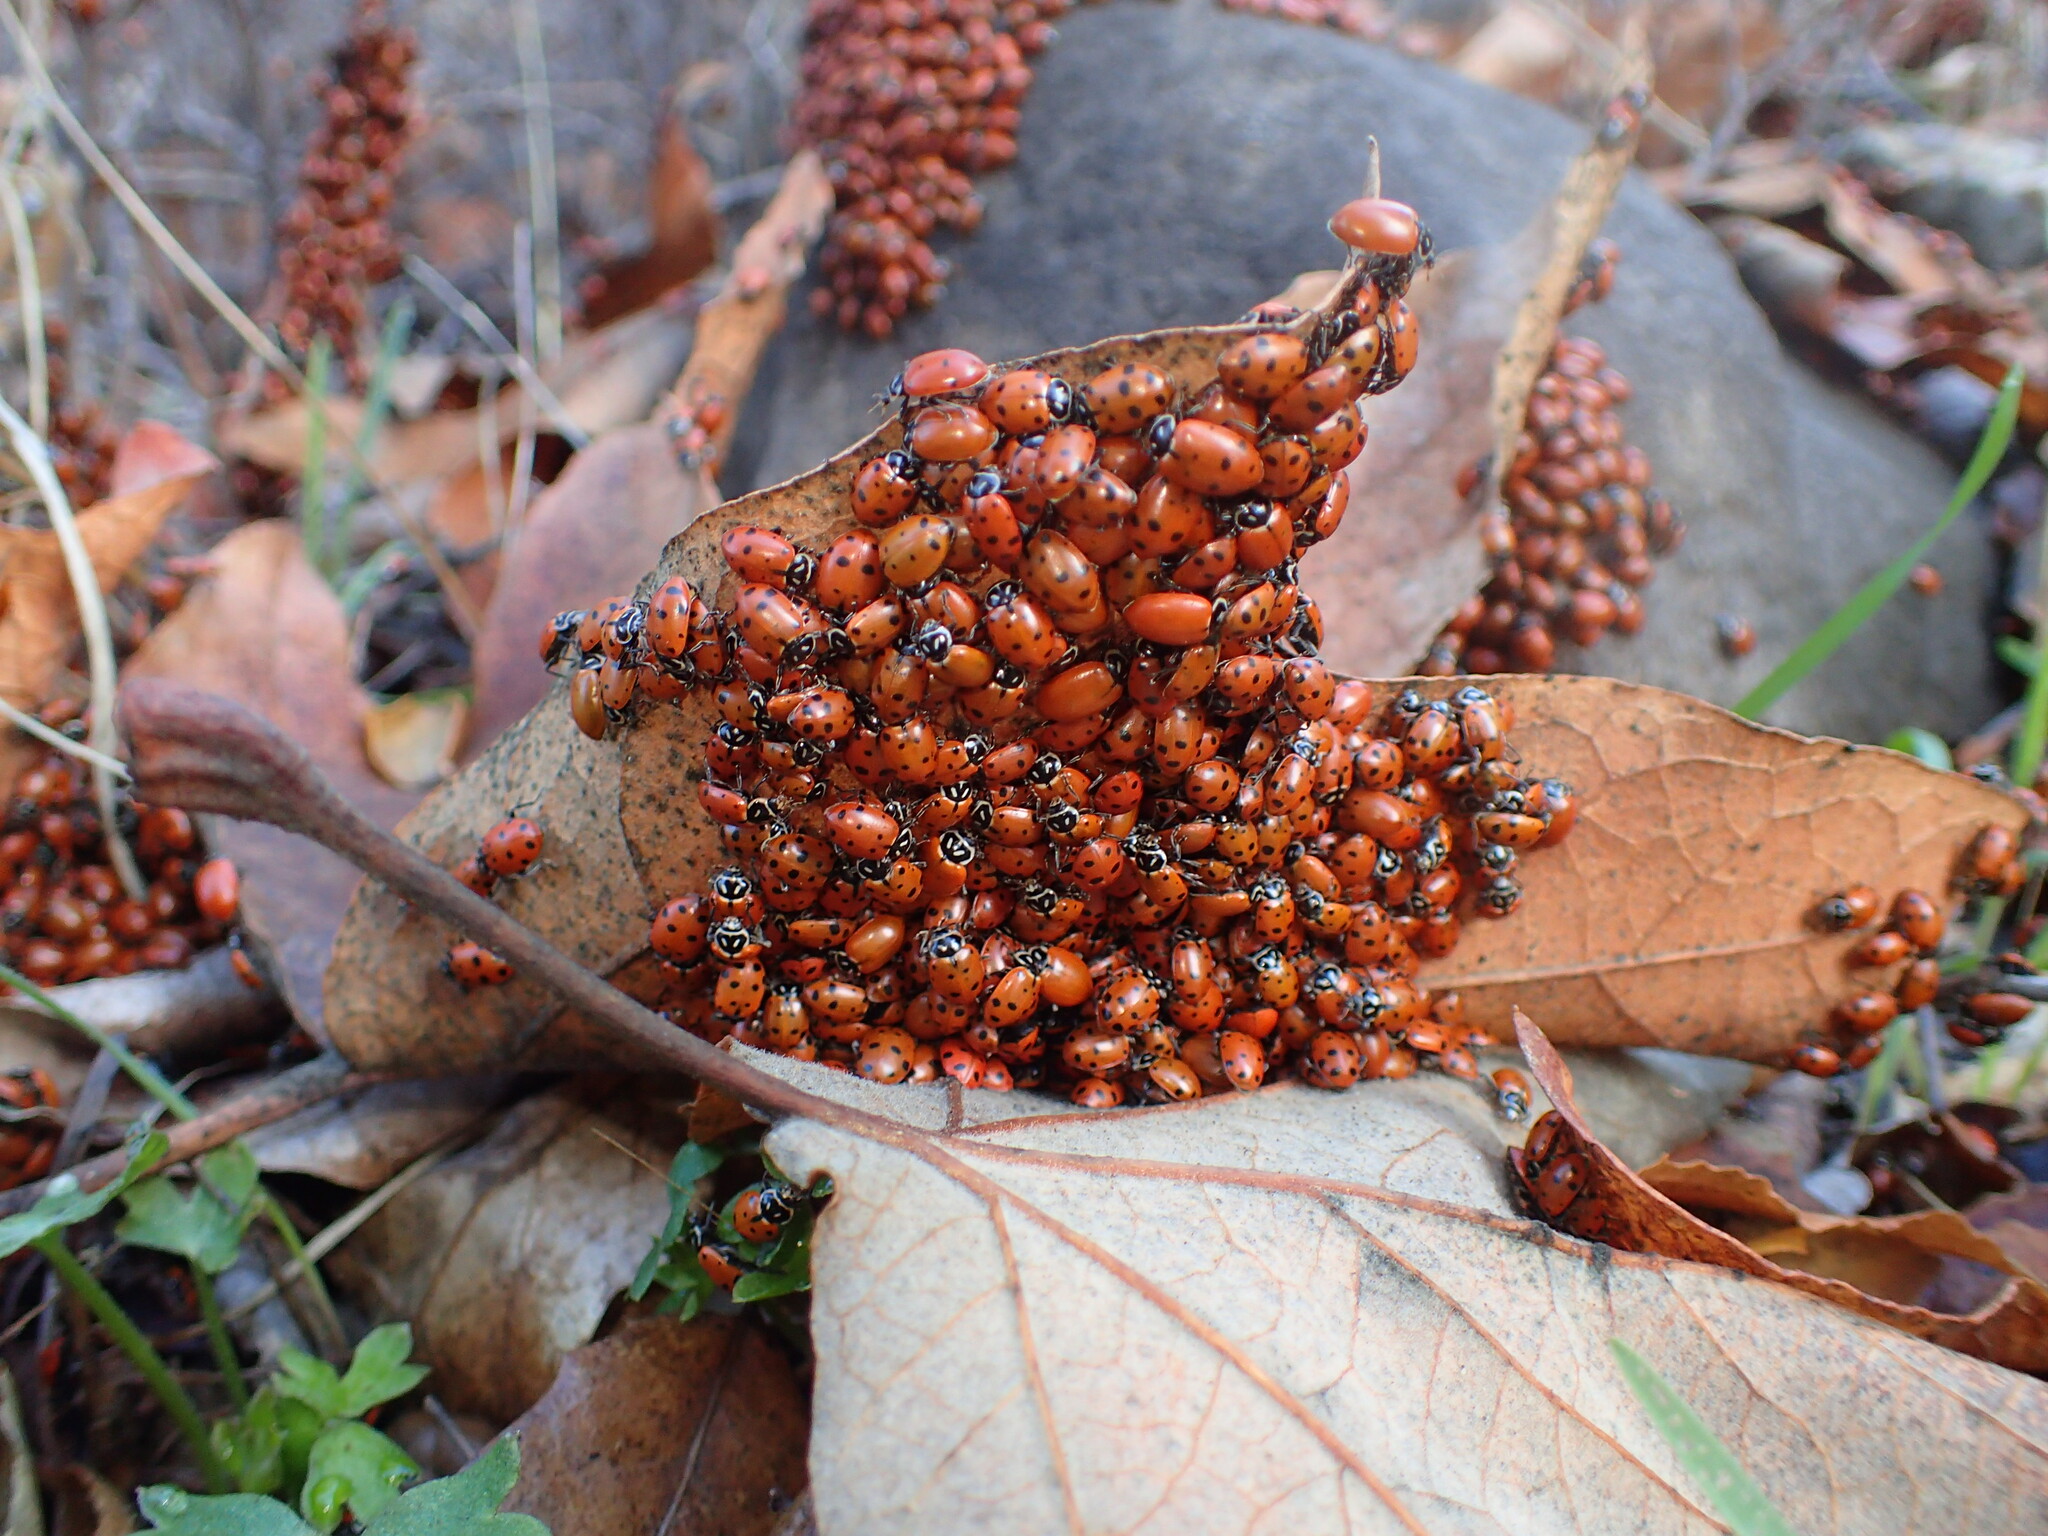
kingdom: Animalia
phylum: Arthropoda
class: Insecta
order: Coleoptera
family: Coccinellidae
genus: Hippodamia
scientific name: Hippodamia convergens
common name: Convergent lady beetle
